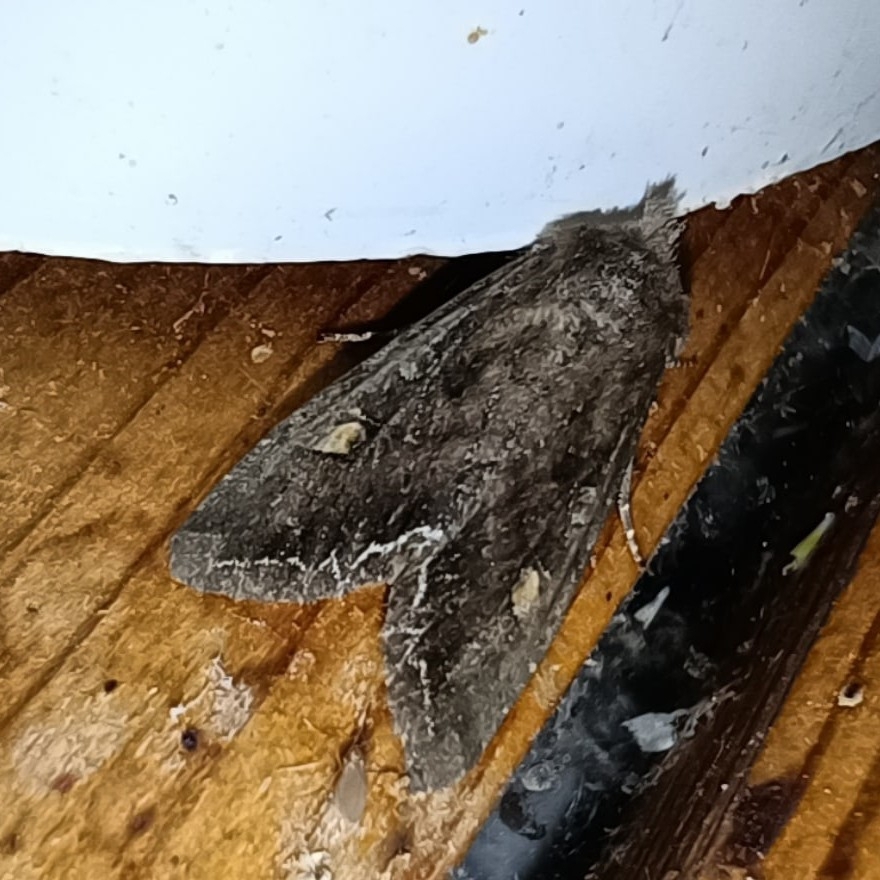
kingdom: Animalia
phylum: Arthropoda
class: Insecta
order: Lepidoptera
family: Noctuidae
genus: Lacanobia
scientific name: Lacanobia oleracea
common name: Bright-line brown-eye
